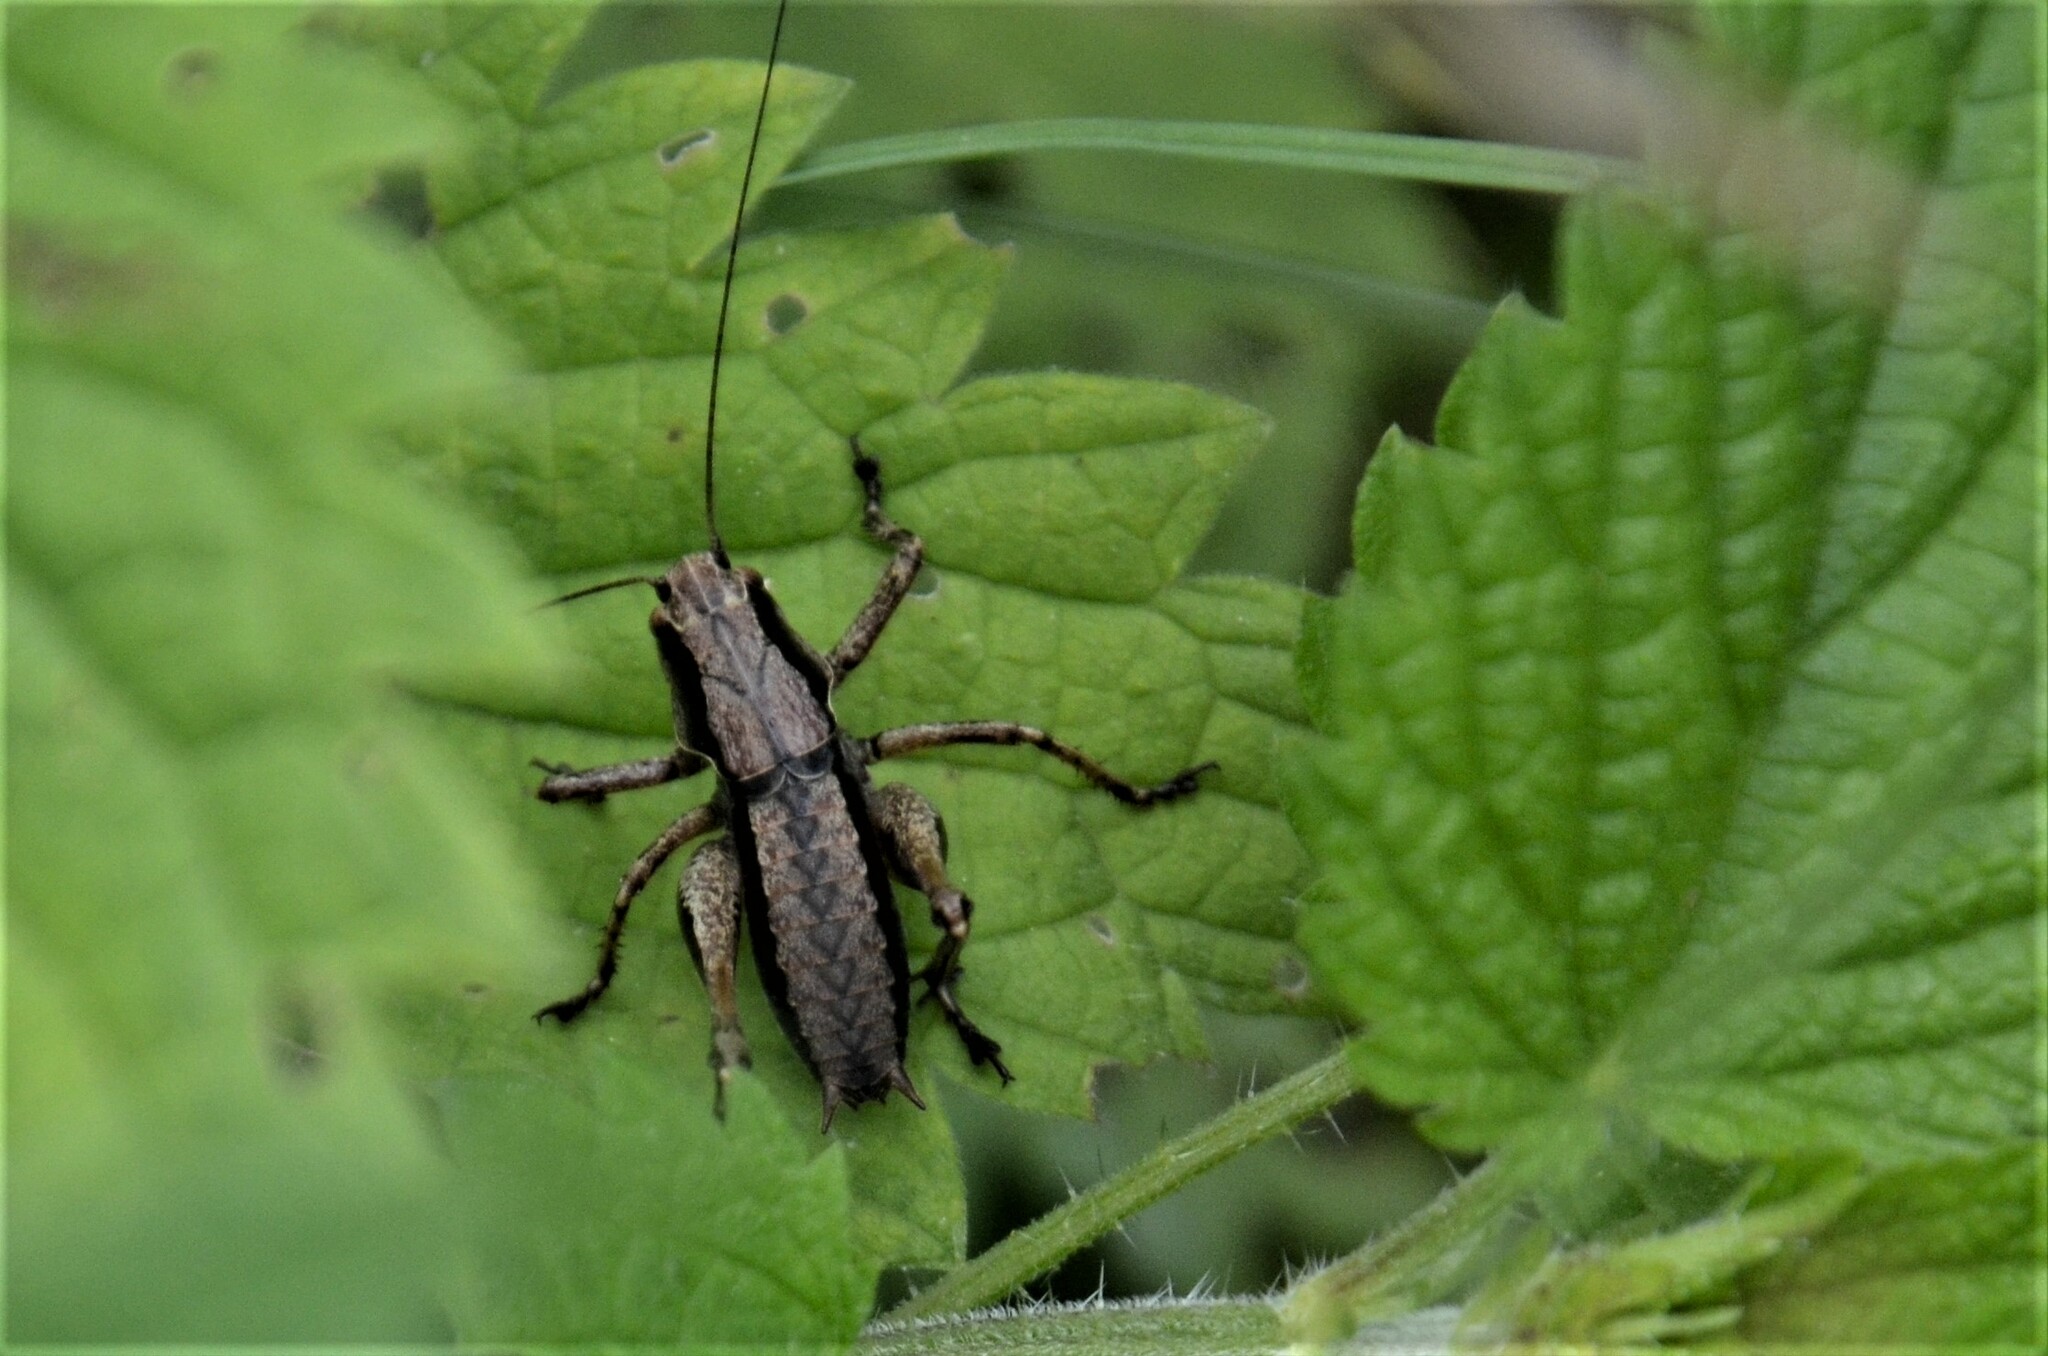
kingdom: Animalia
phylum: Arthropoda
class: Insecta
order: Orthoptera
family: Tettigoniidae
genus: Pholidoptera
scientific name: Pholidoptera griseoaptera
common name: Dark bush-cricket
